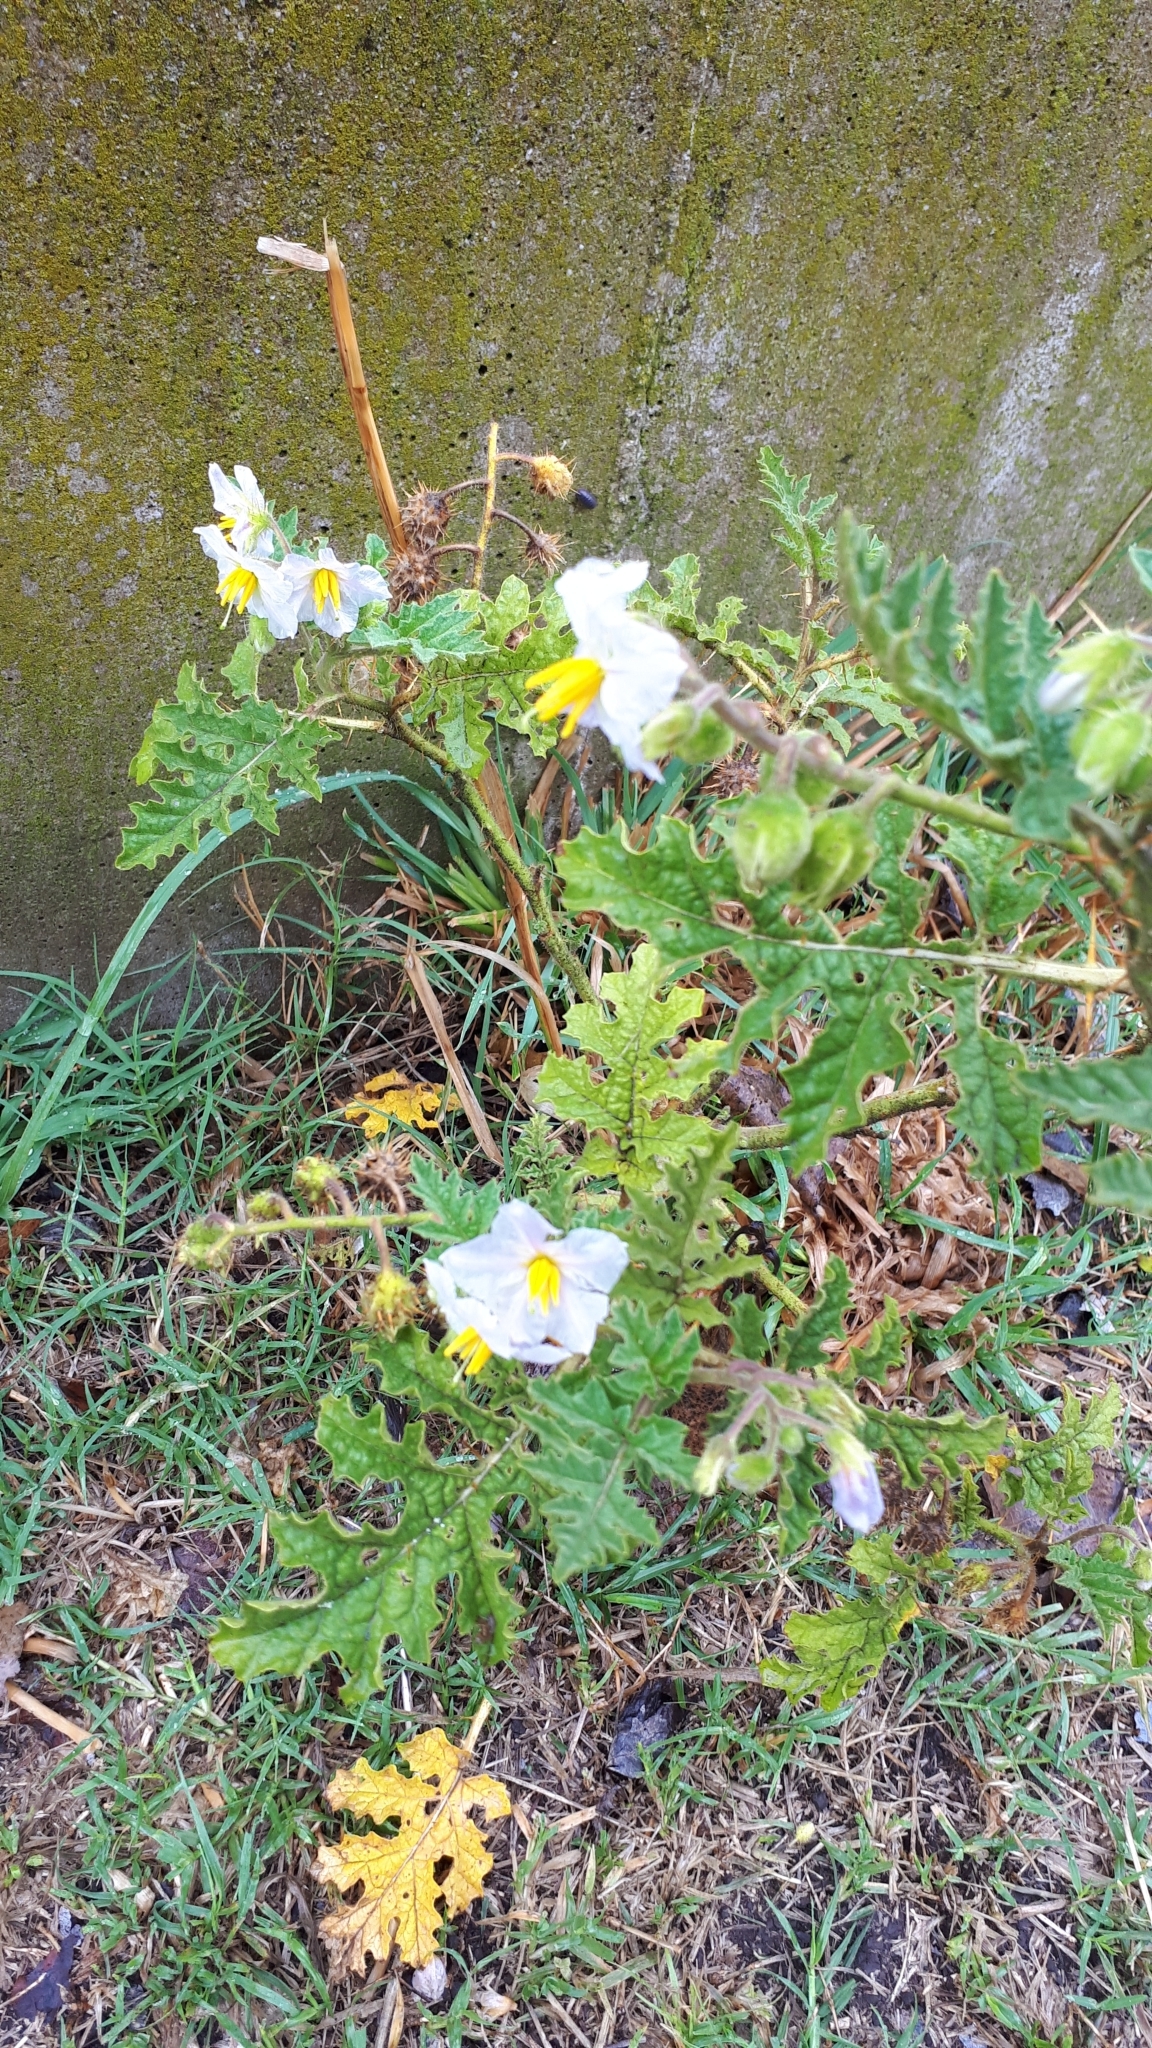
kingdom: Plantae
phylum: Tracheophyta
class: Magnoliopsida
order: Solanales
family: Solanaceae
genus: Solanum
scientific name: Solanum sisymbriifolium
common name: Red buffalo-bur
